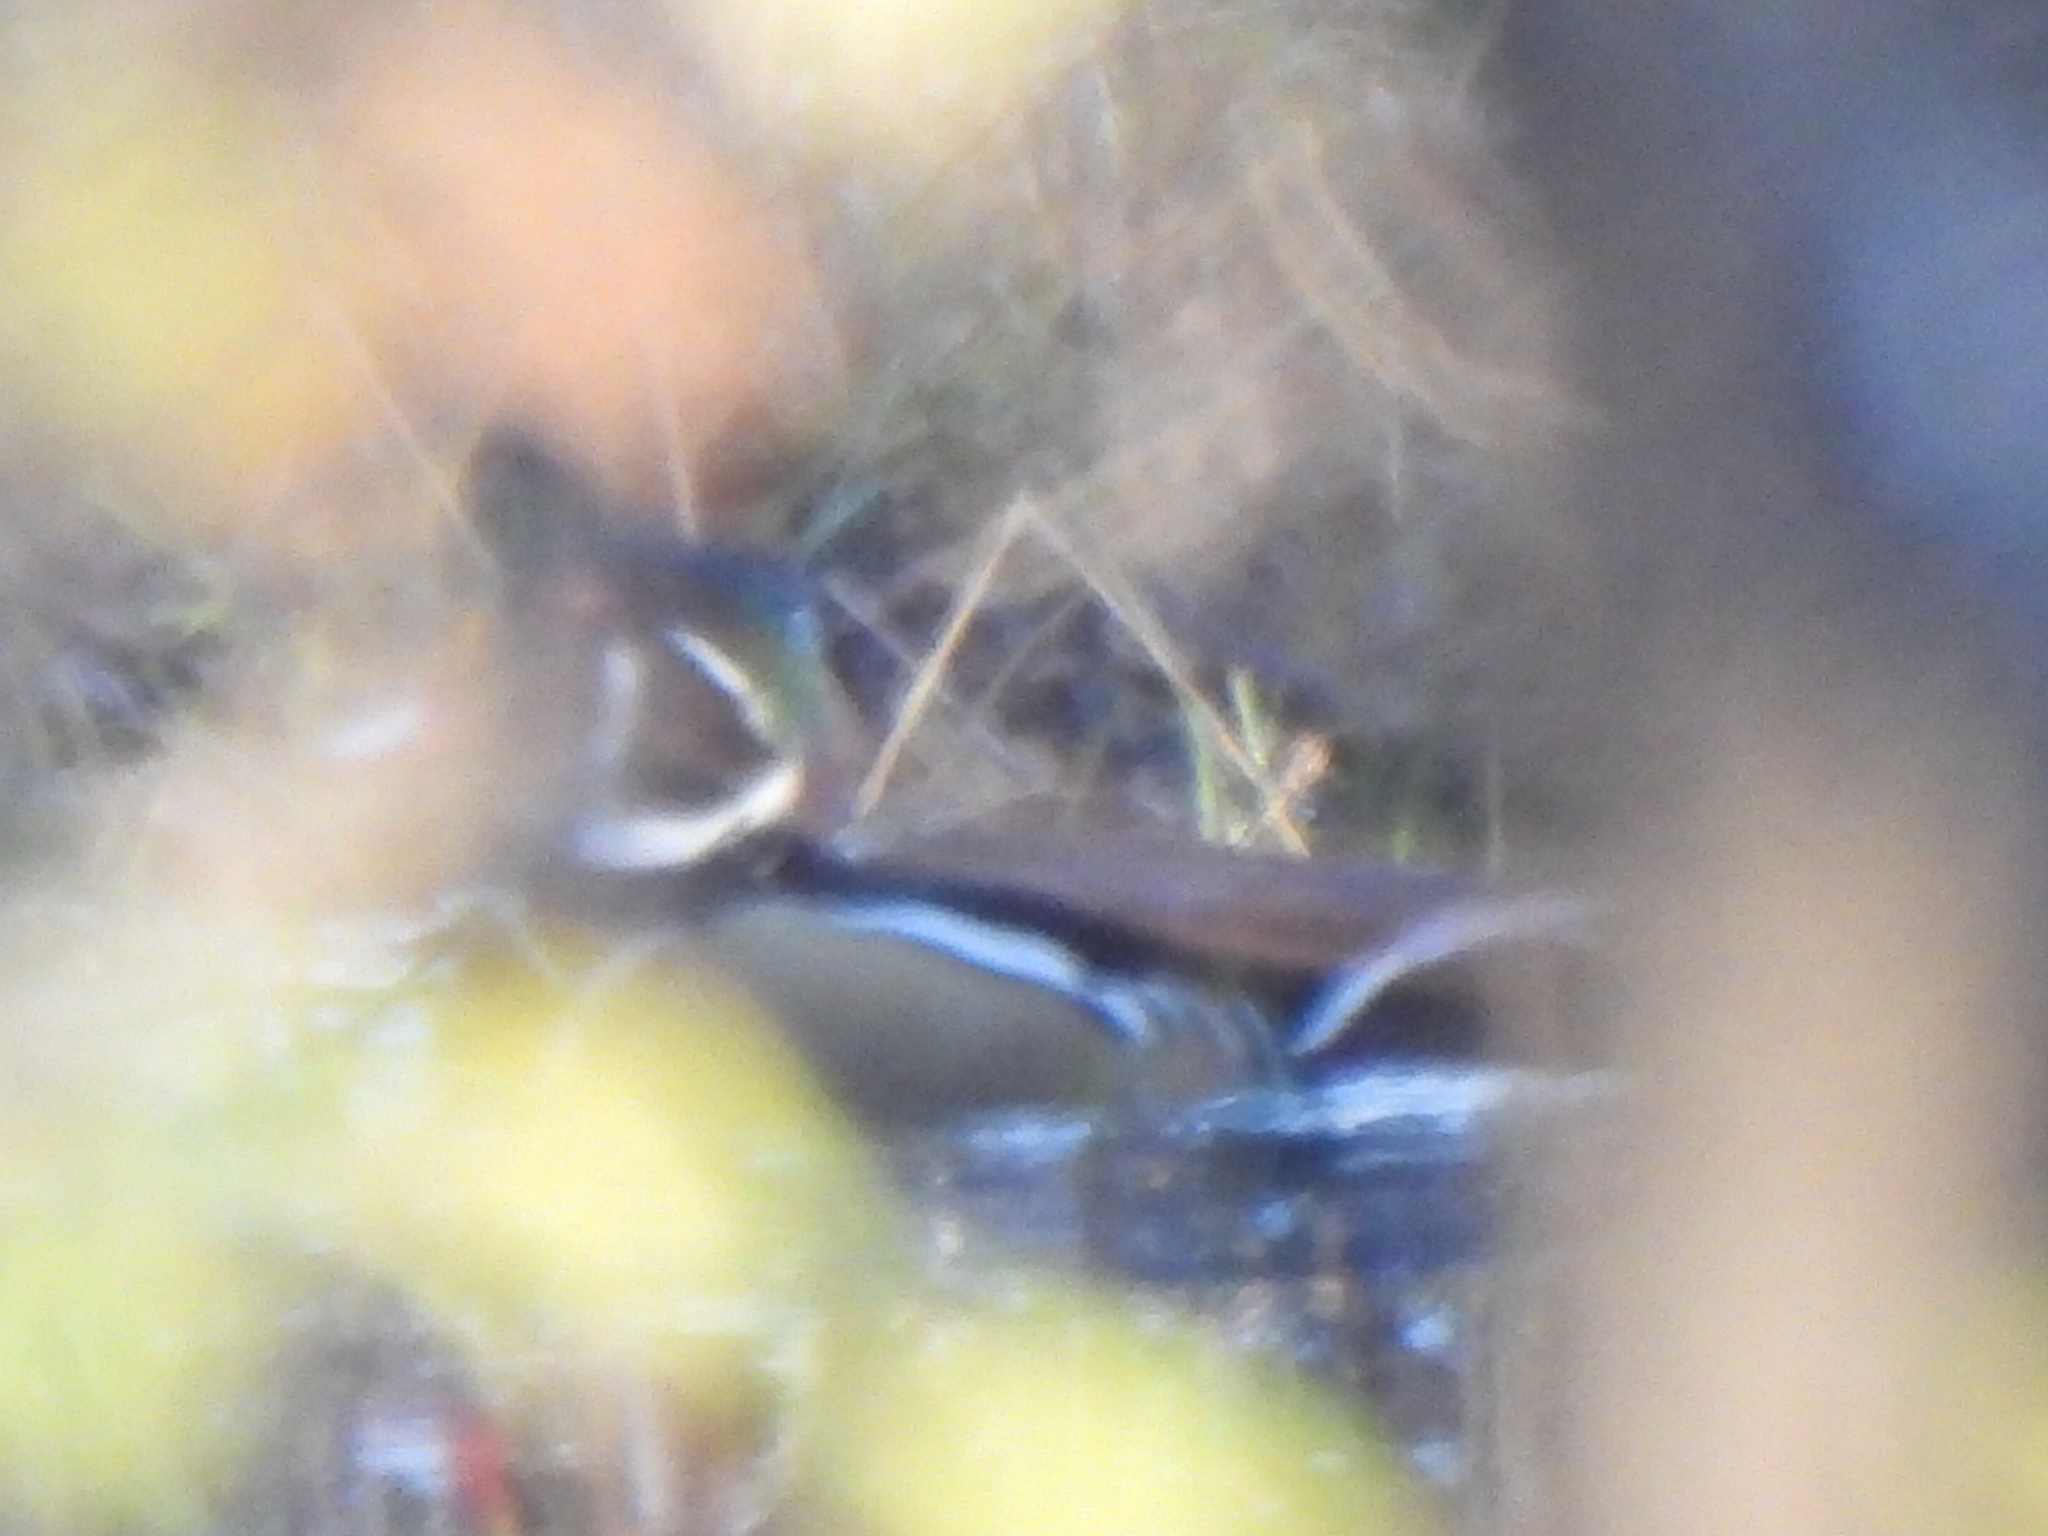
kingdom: Animalia
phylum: Chordata
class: Aves
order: Anseriformes
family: Anatidae
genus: Aix
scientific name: Aix sponsa
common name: Wood duck
